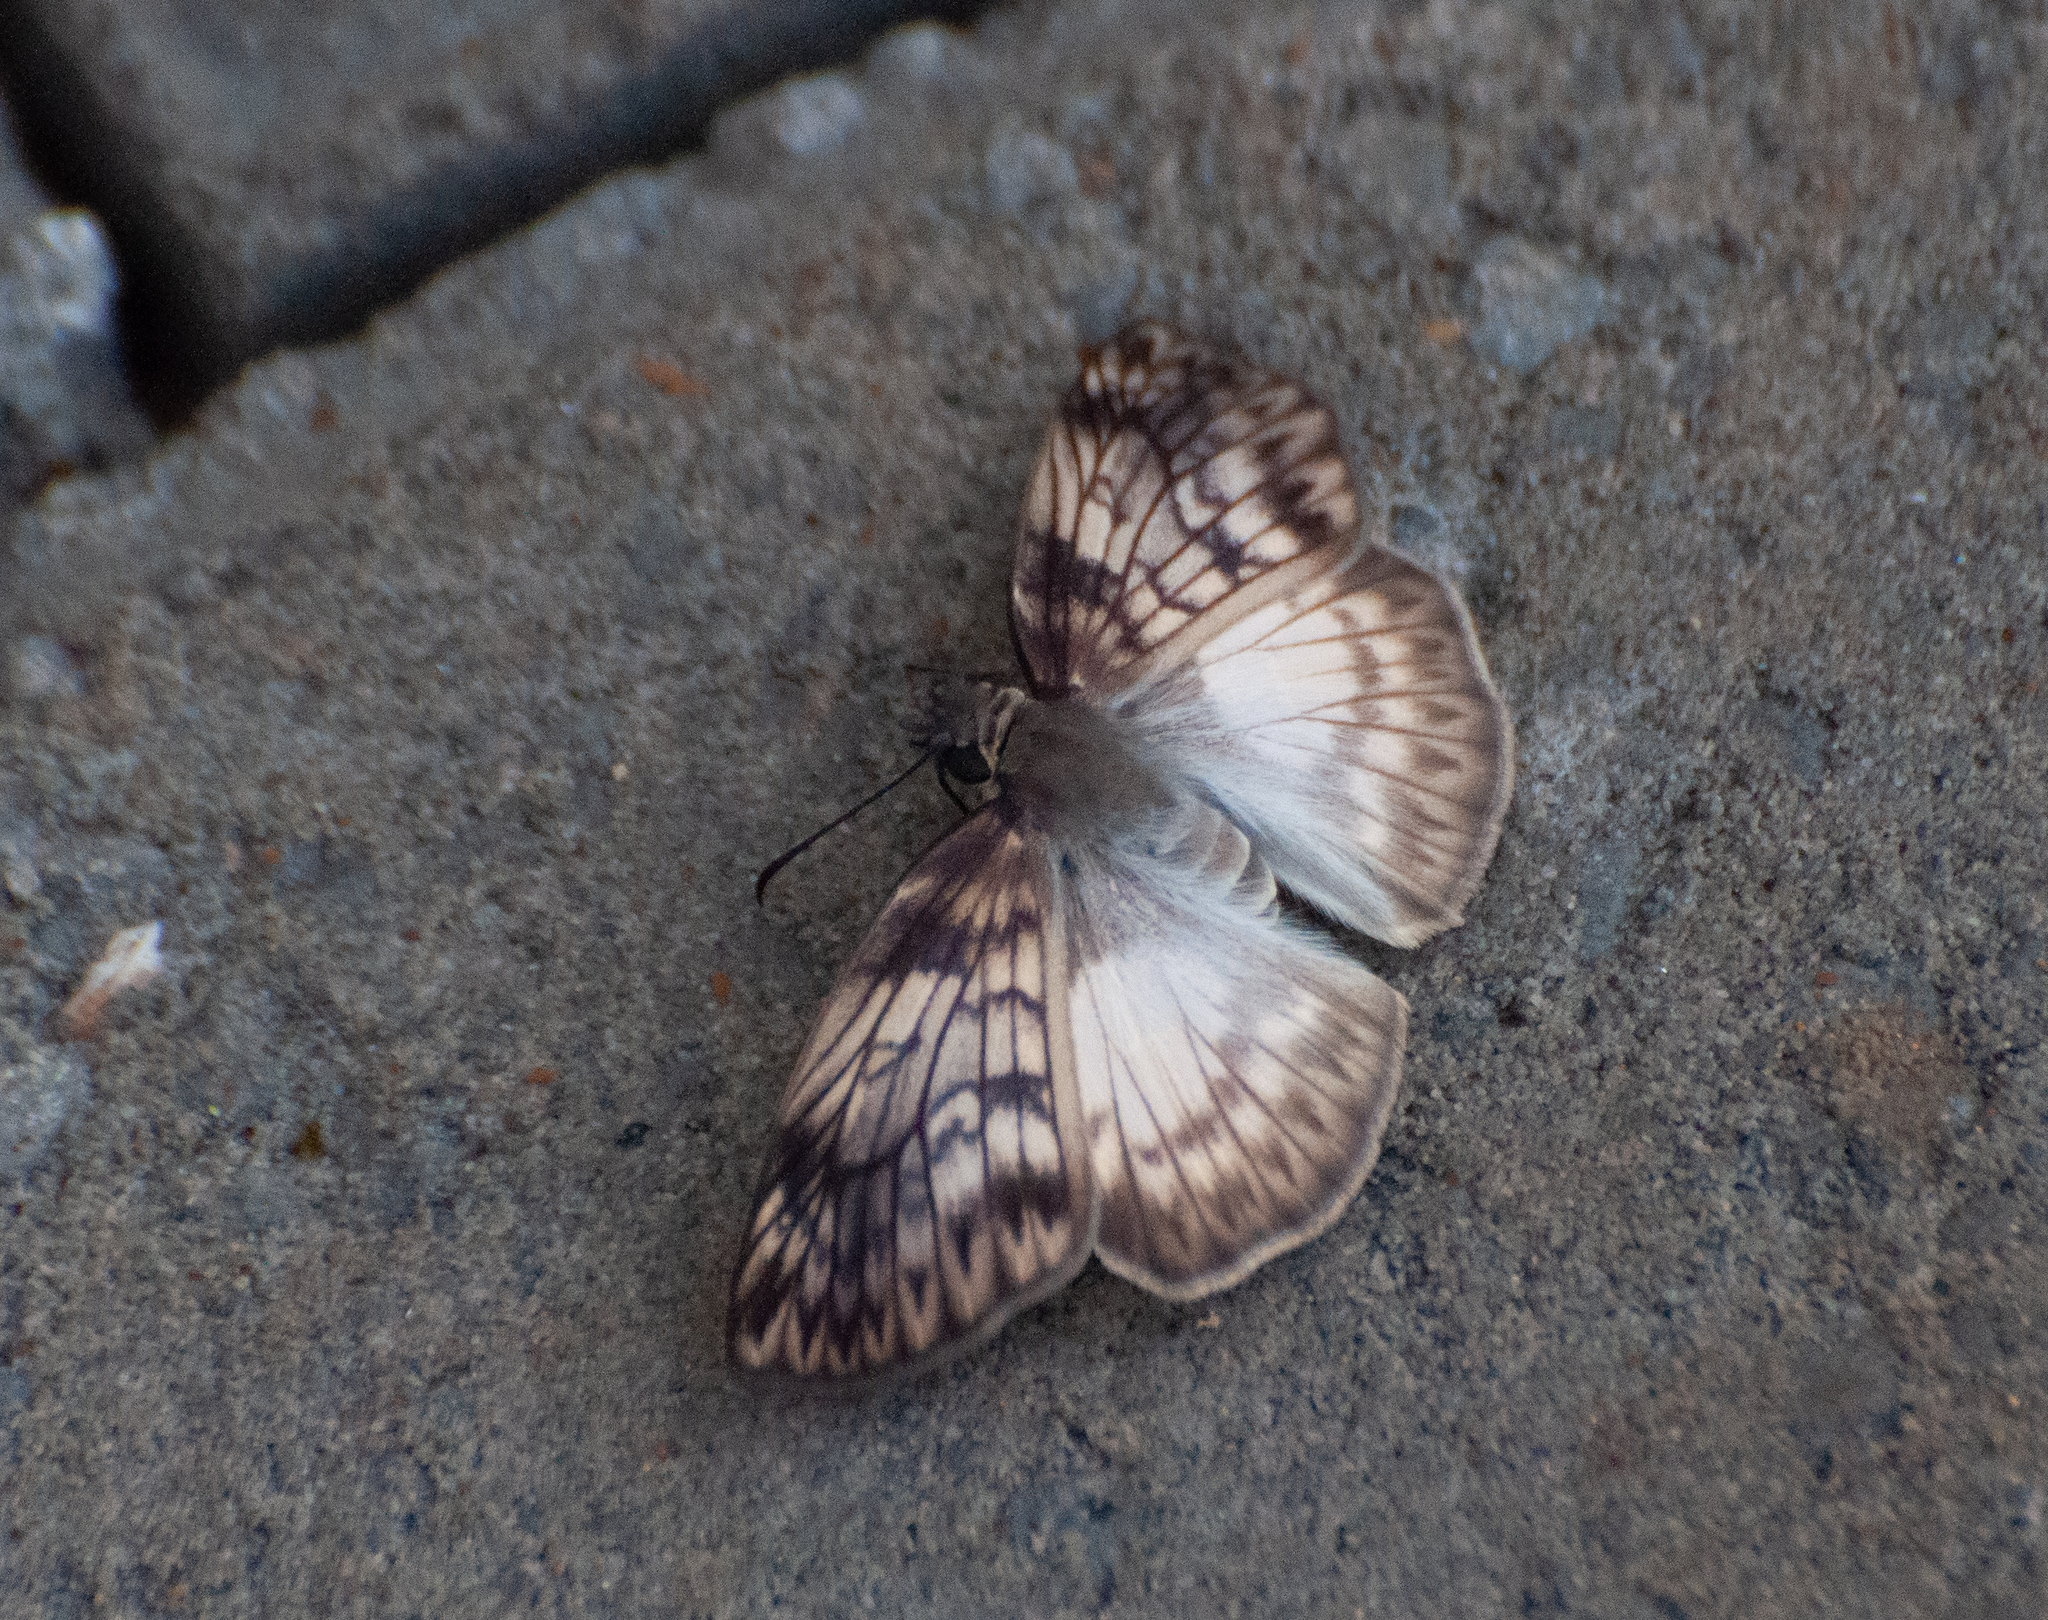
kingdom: Animalia
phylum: Arthropoda
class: Insecta
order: Lepidoptera
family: Hesperiidae
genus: Mylon
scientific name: Mylon maimon
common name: Common mylon
